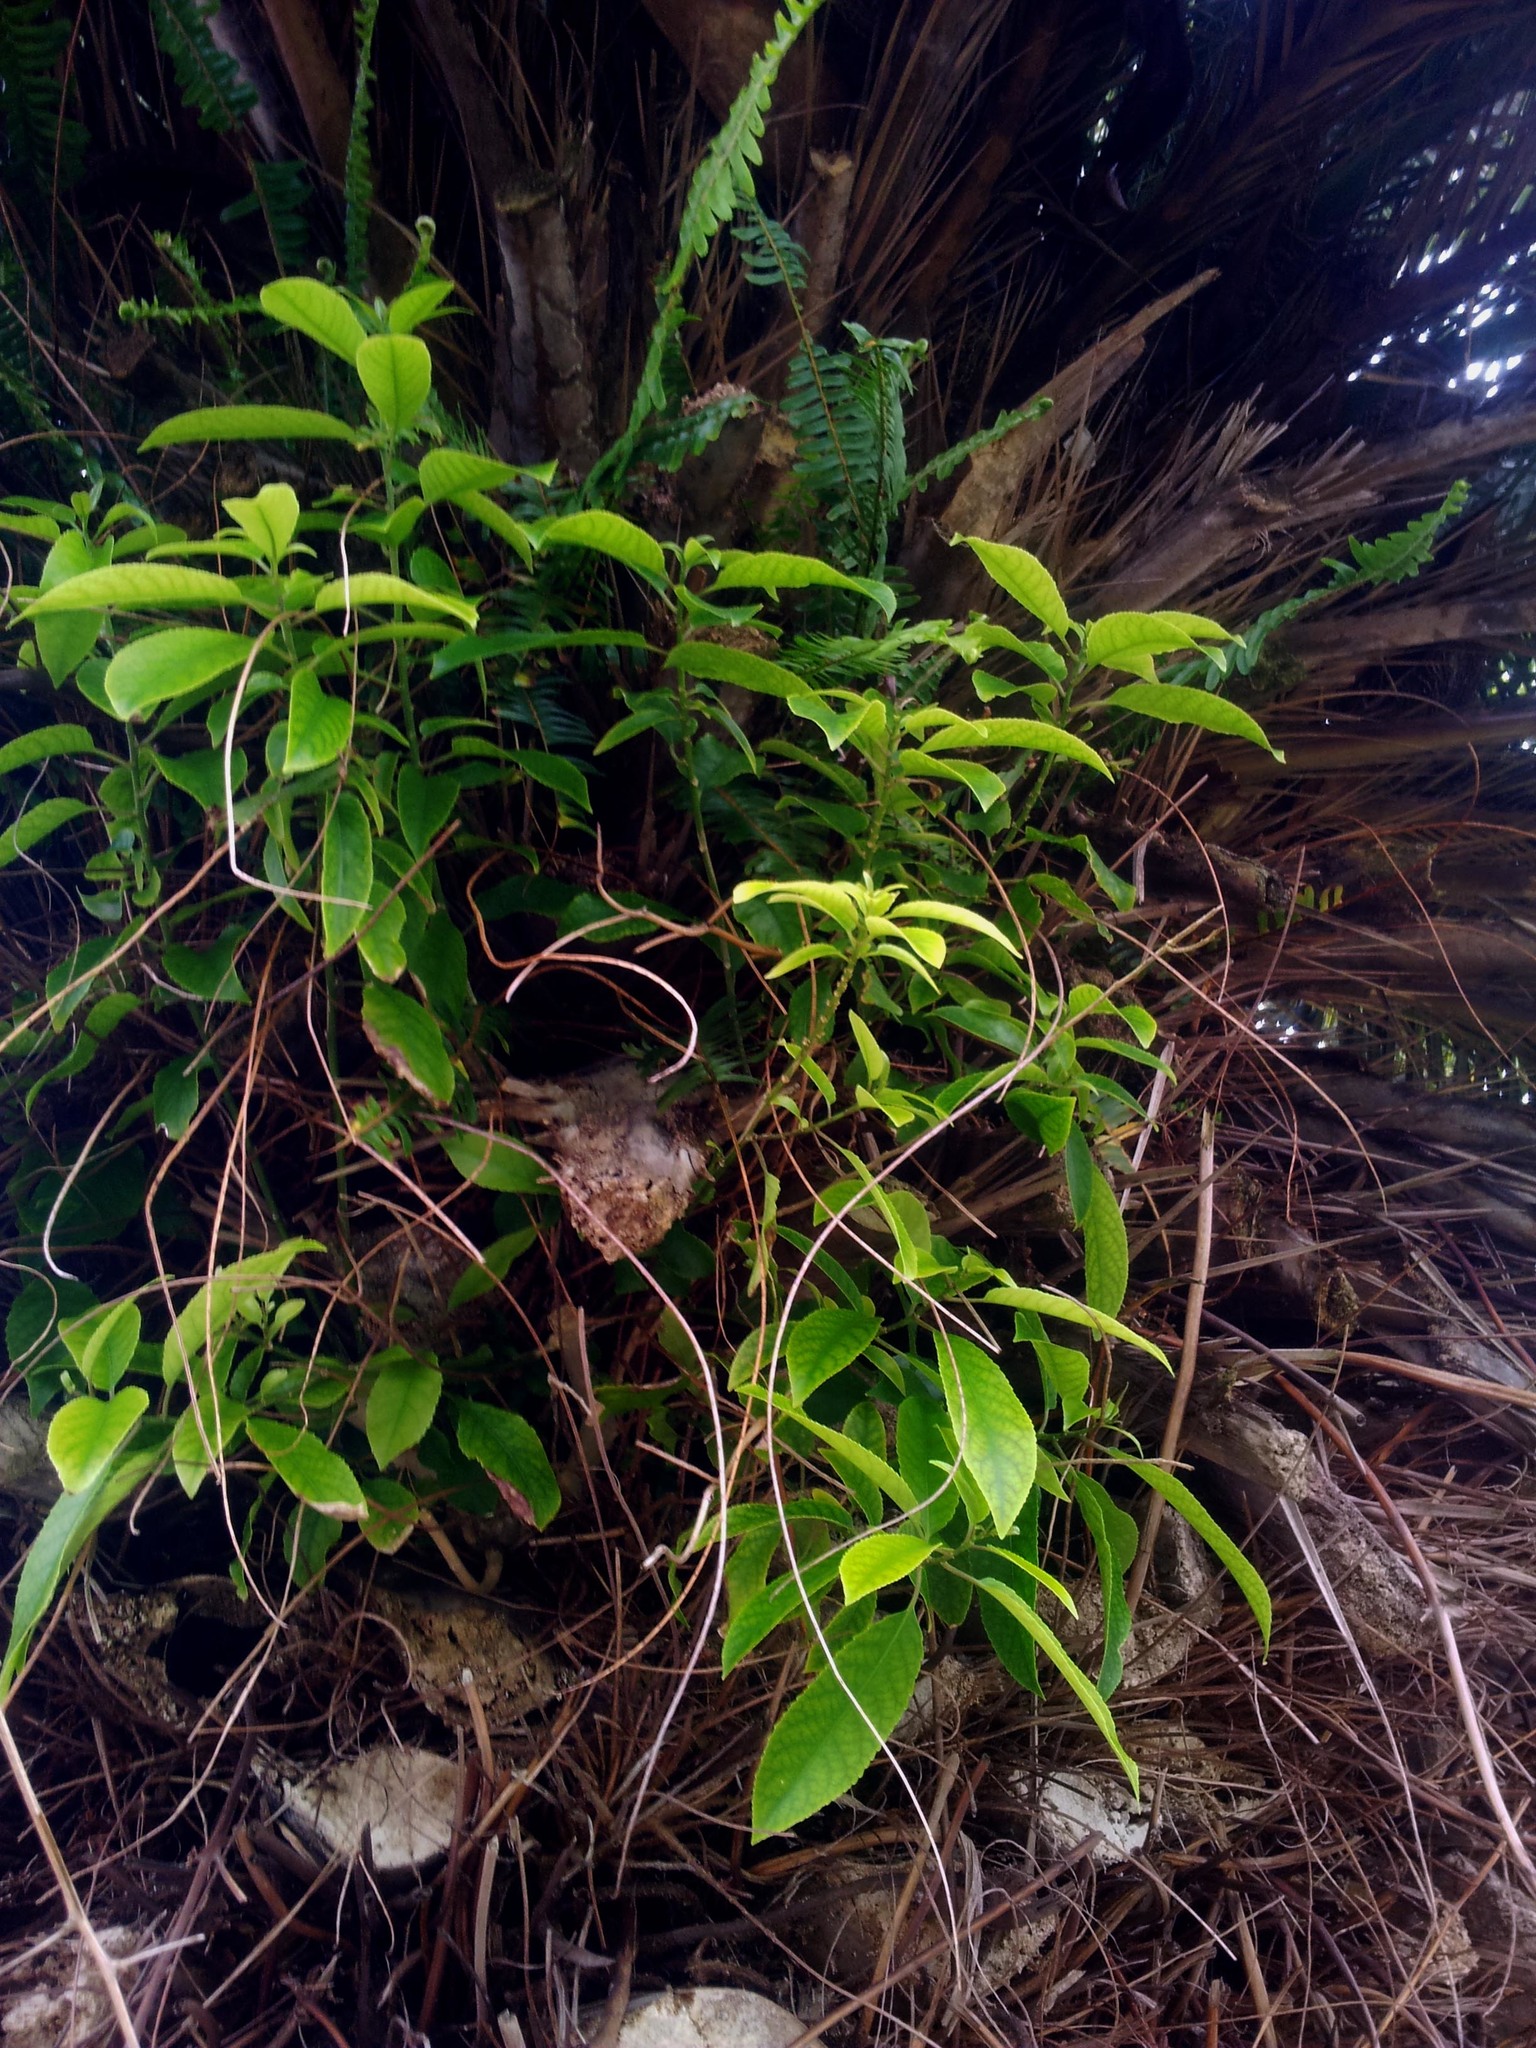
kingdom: Plantae
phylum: Tracheophyta
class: Magnoliopsida
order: Malpighiales
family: Violaceae
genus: Melicytus
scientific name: Melicytus ramiflorus
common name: Mahoe
